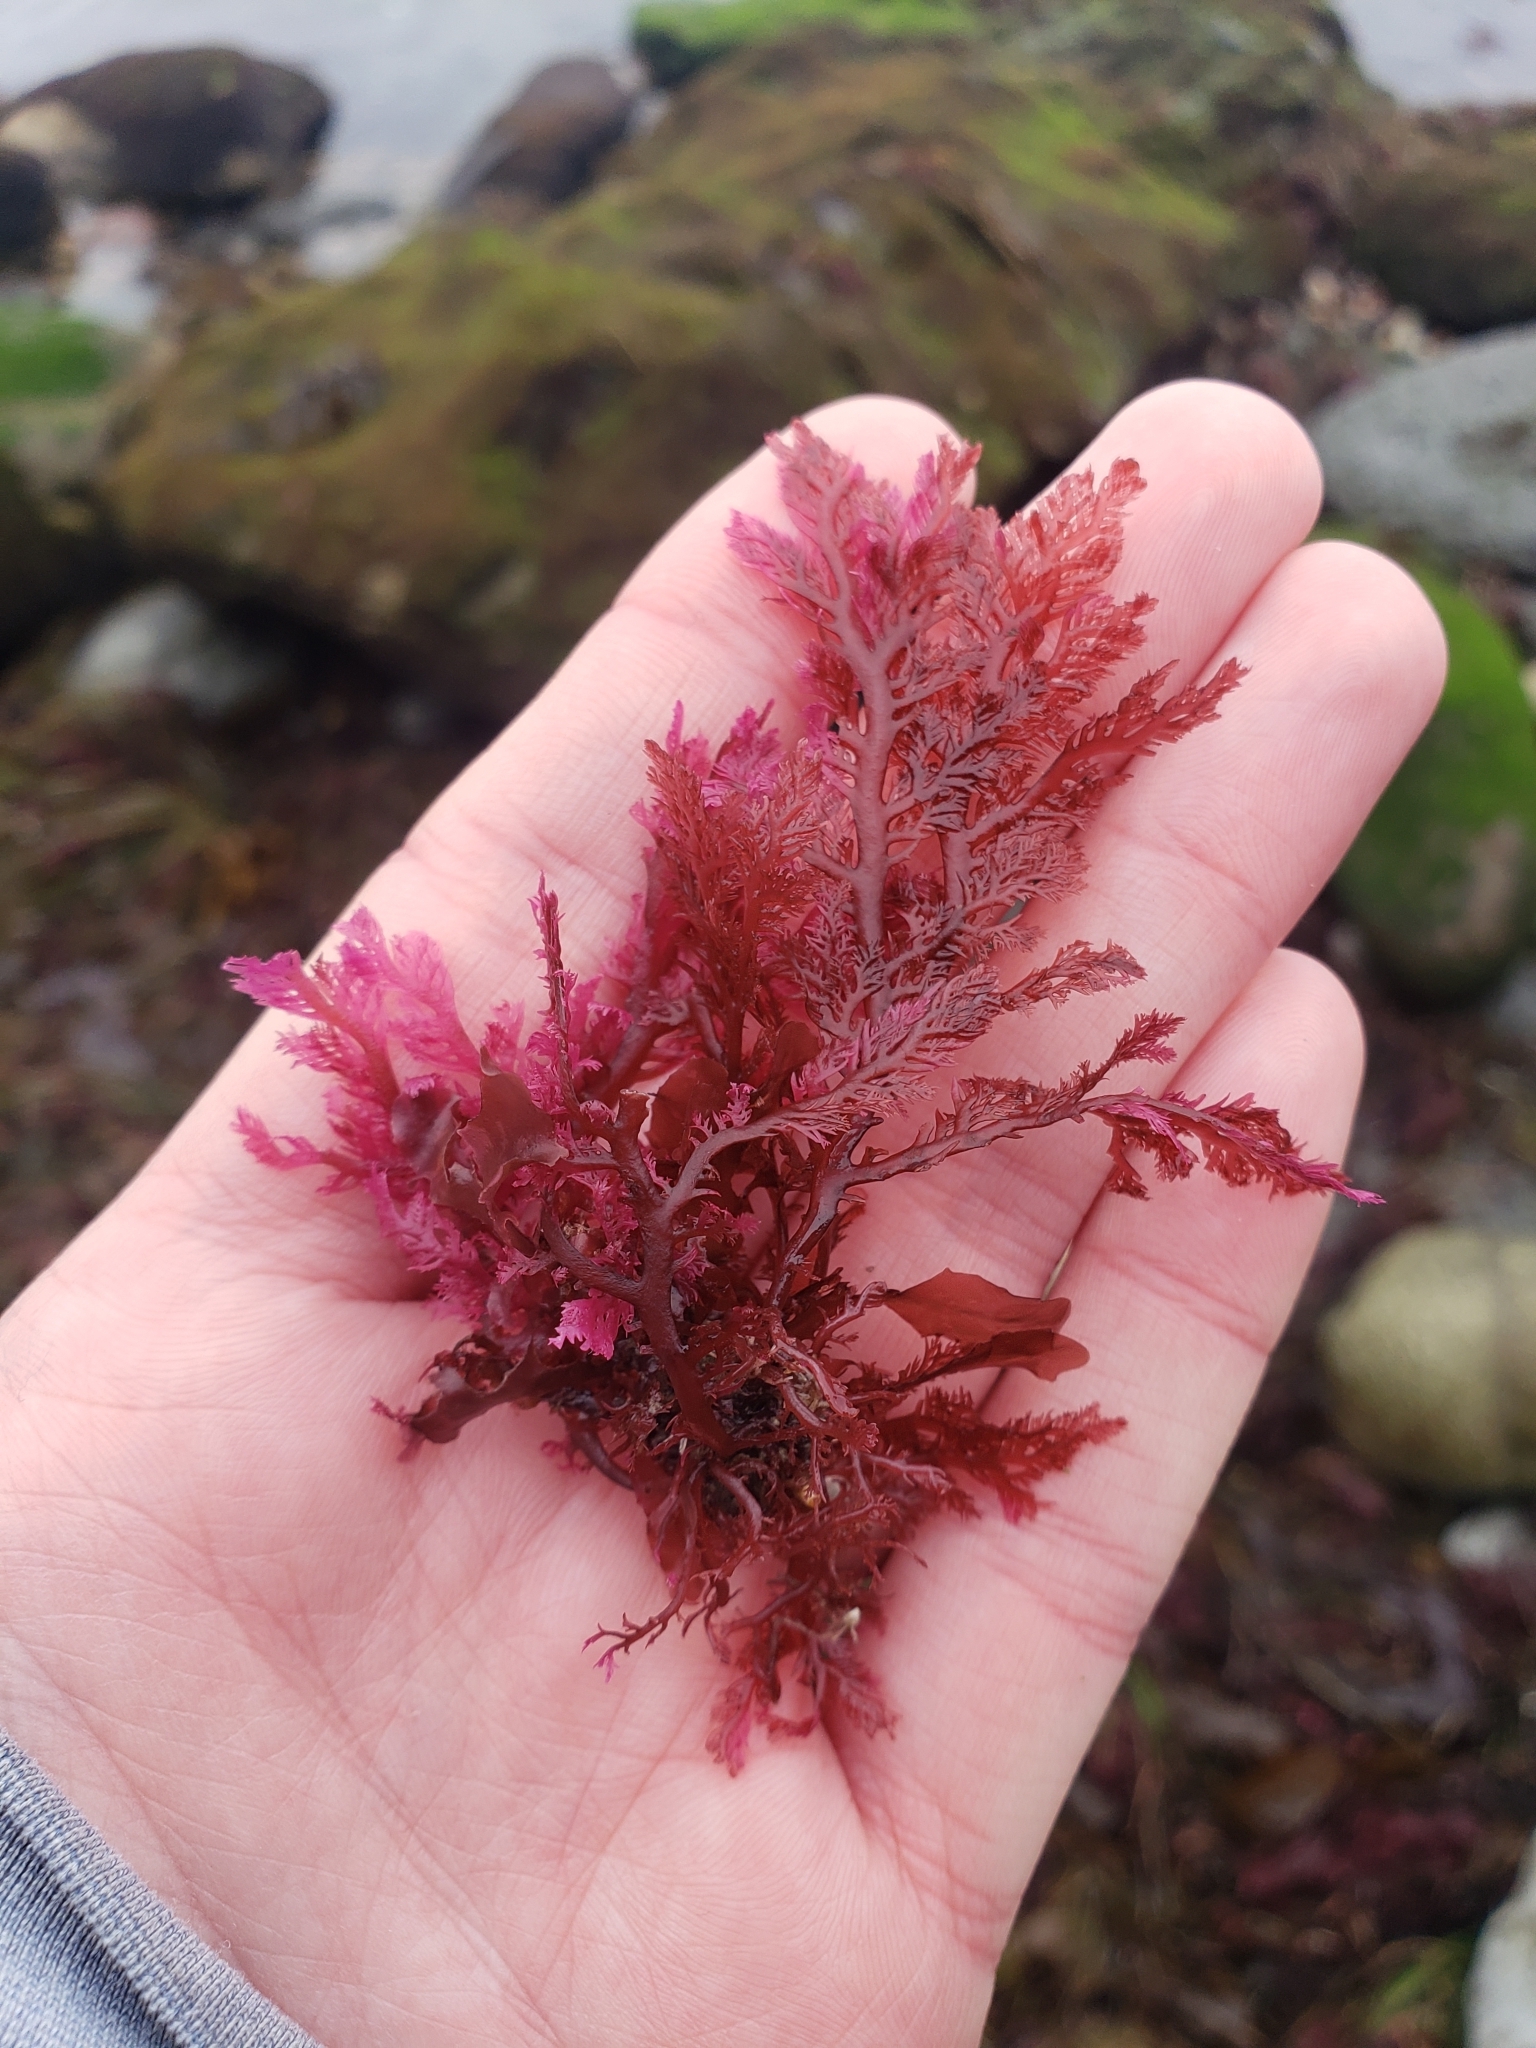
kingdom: Plantae
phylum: Rhodophyta
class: Florideophyceae
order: Plocamiales
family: Plocamiaceae
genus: Plocamium
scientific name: Plocamium cartilagineum
